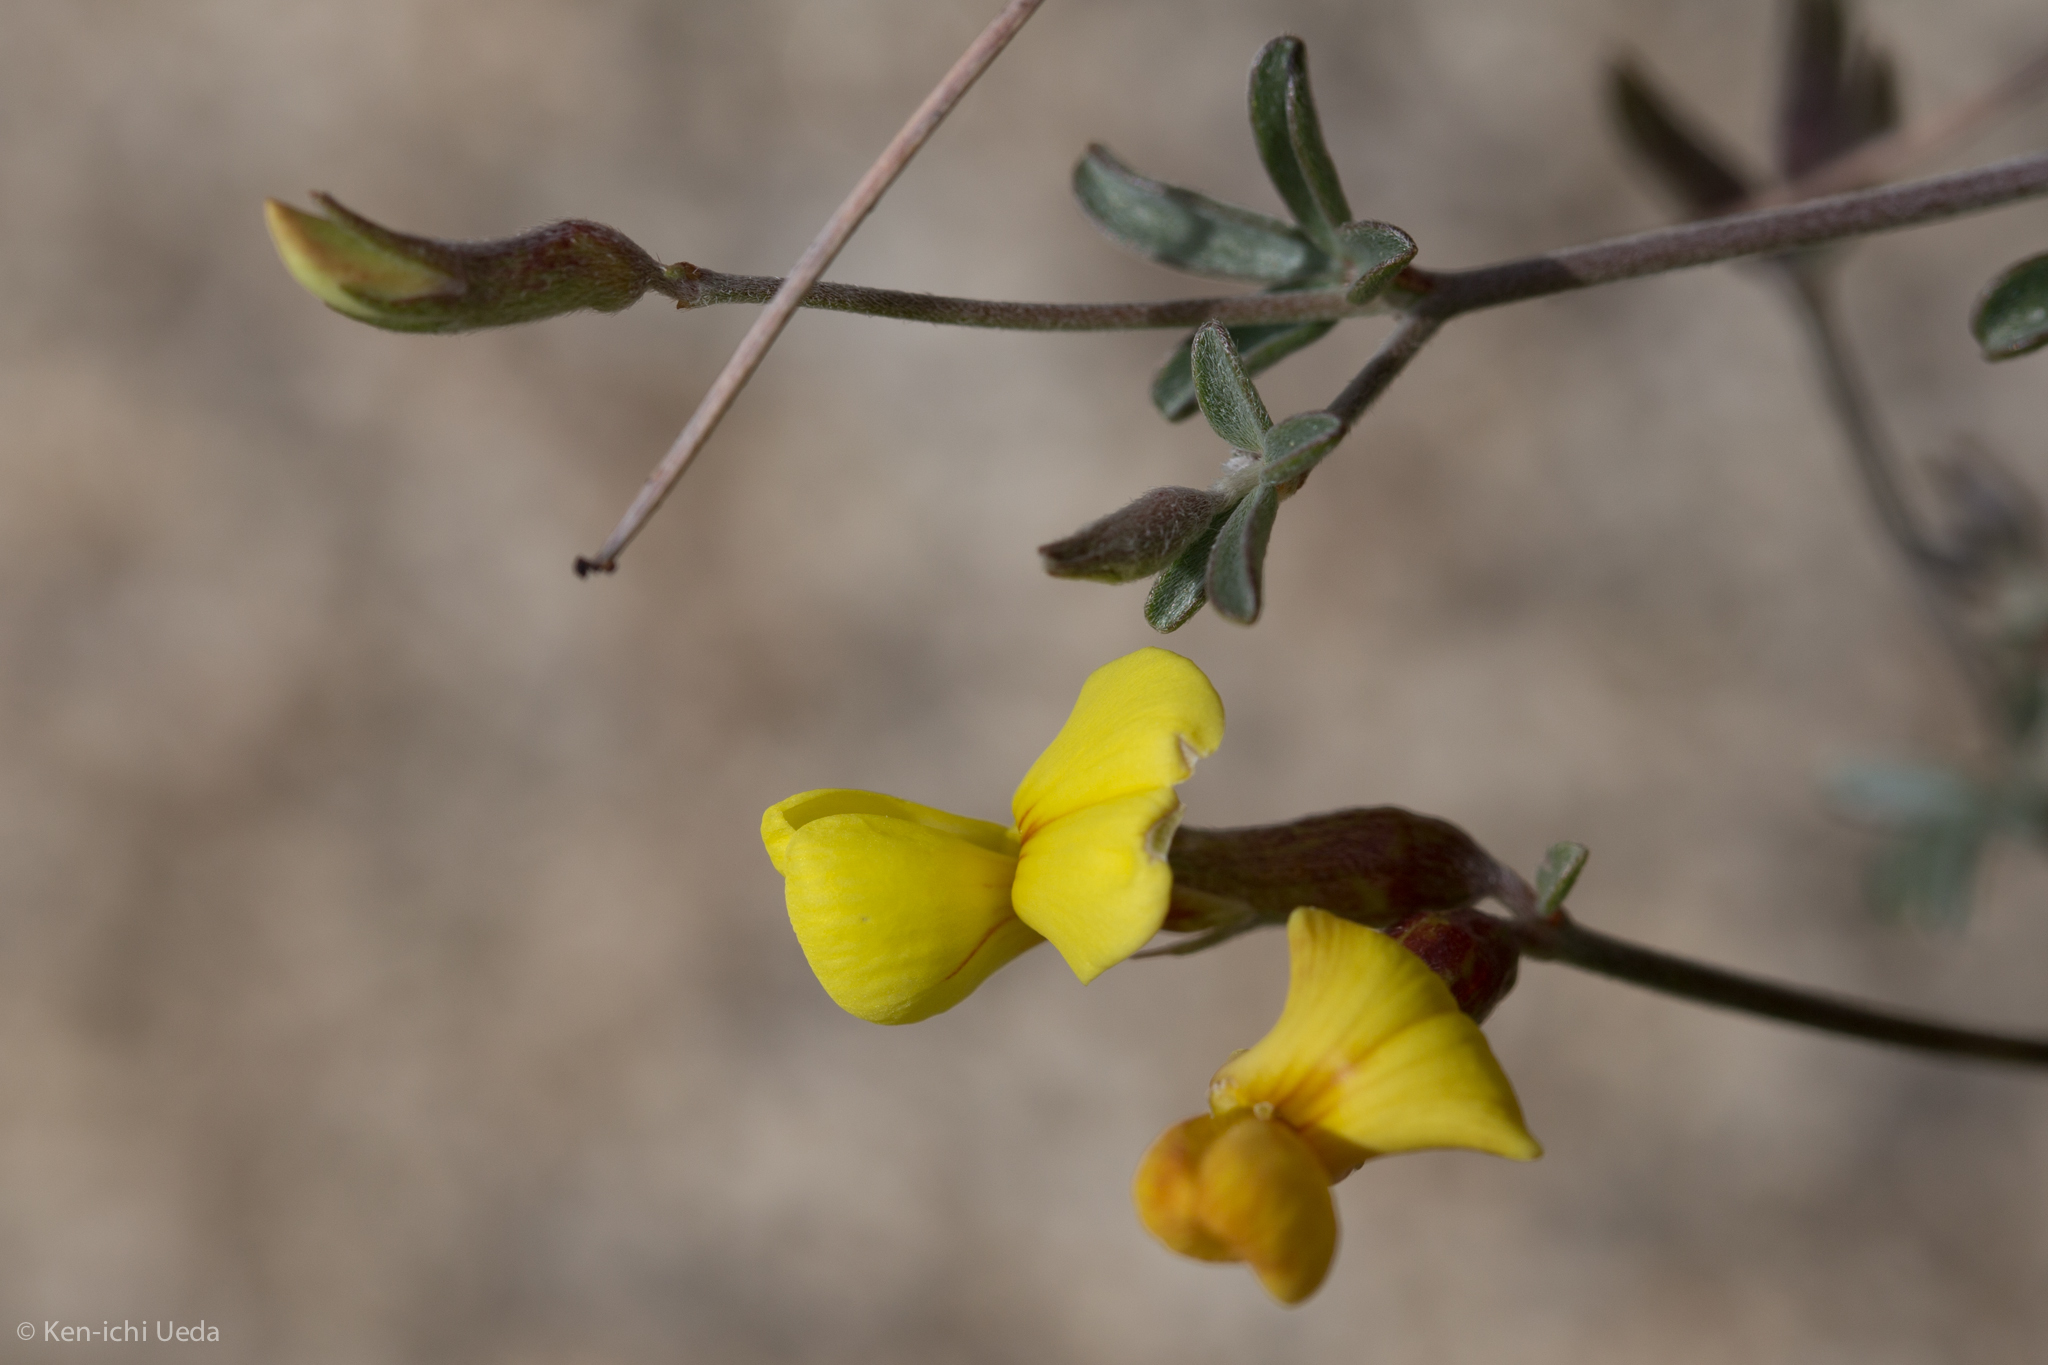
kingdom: Plantae
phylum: Tracheophyta
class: Magnoliopsida
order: Fabales
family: Fabaceae
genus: Acmispon
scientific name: Acmispon rigidus
